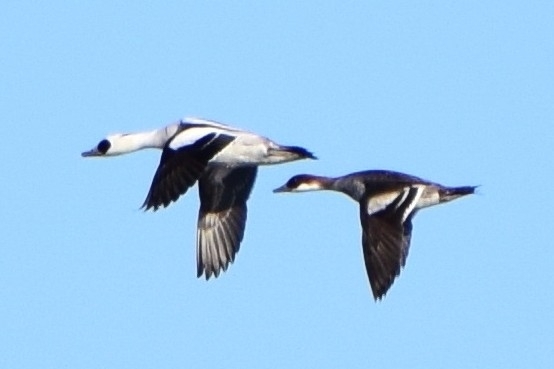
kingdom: Animalia
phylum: Chordata
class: Aves
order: Anseriformes
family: Anatidae
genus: Mergellus
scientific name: Mergellus albellus
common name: Smew
